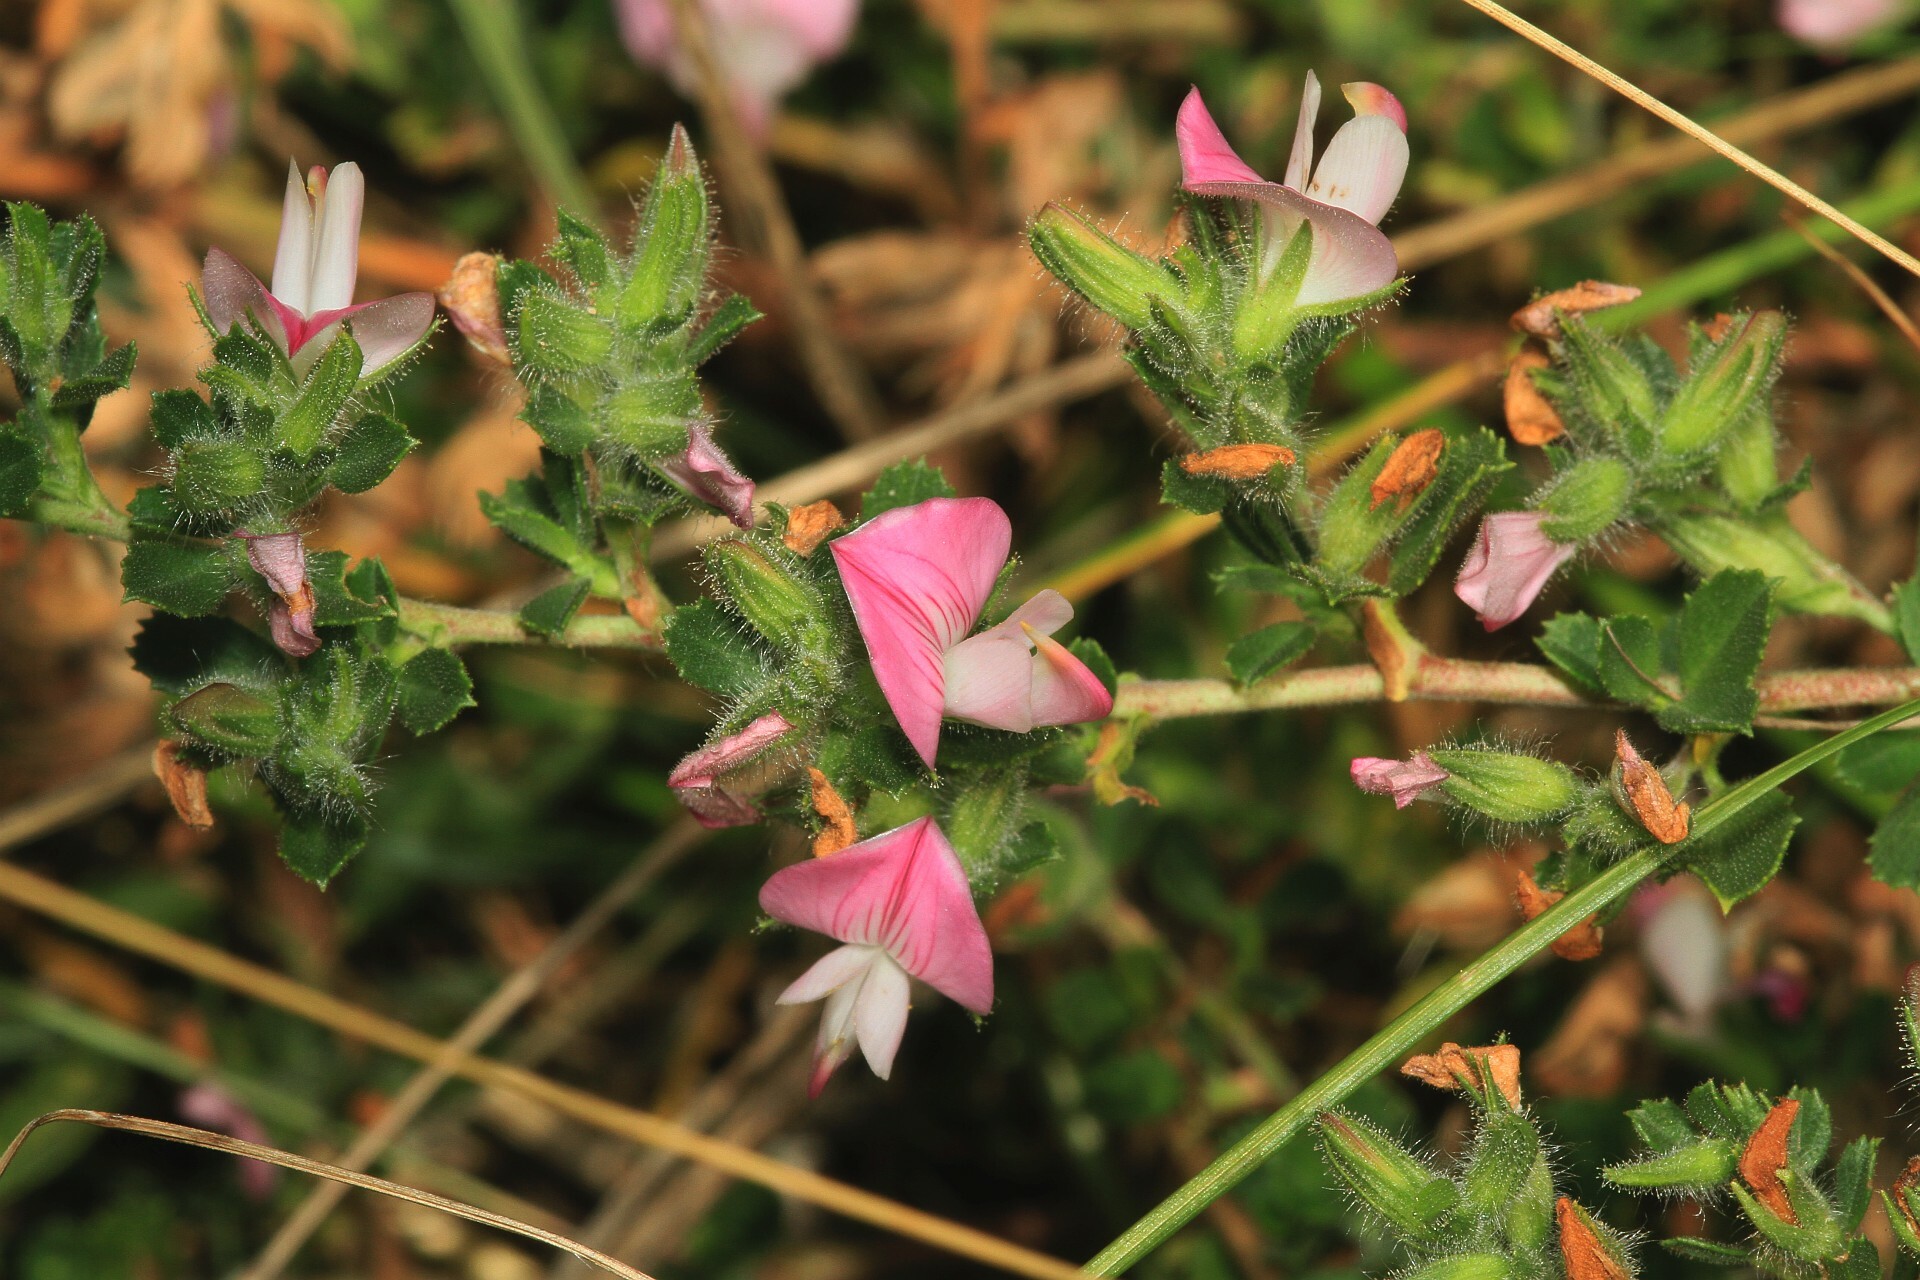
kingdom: Plantae
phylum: Tracheophyta
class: Magnoliopsida
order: Fabales
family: Fabaceae
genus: Ononis
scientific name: Ononis spinosa
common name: Spiny restharrow
